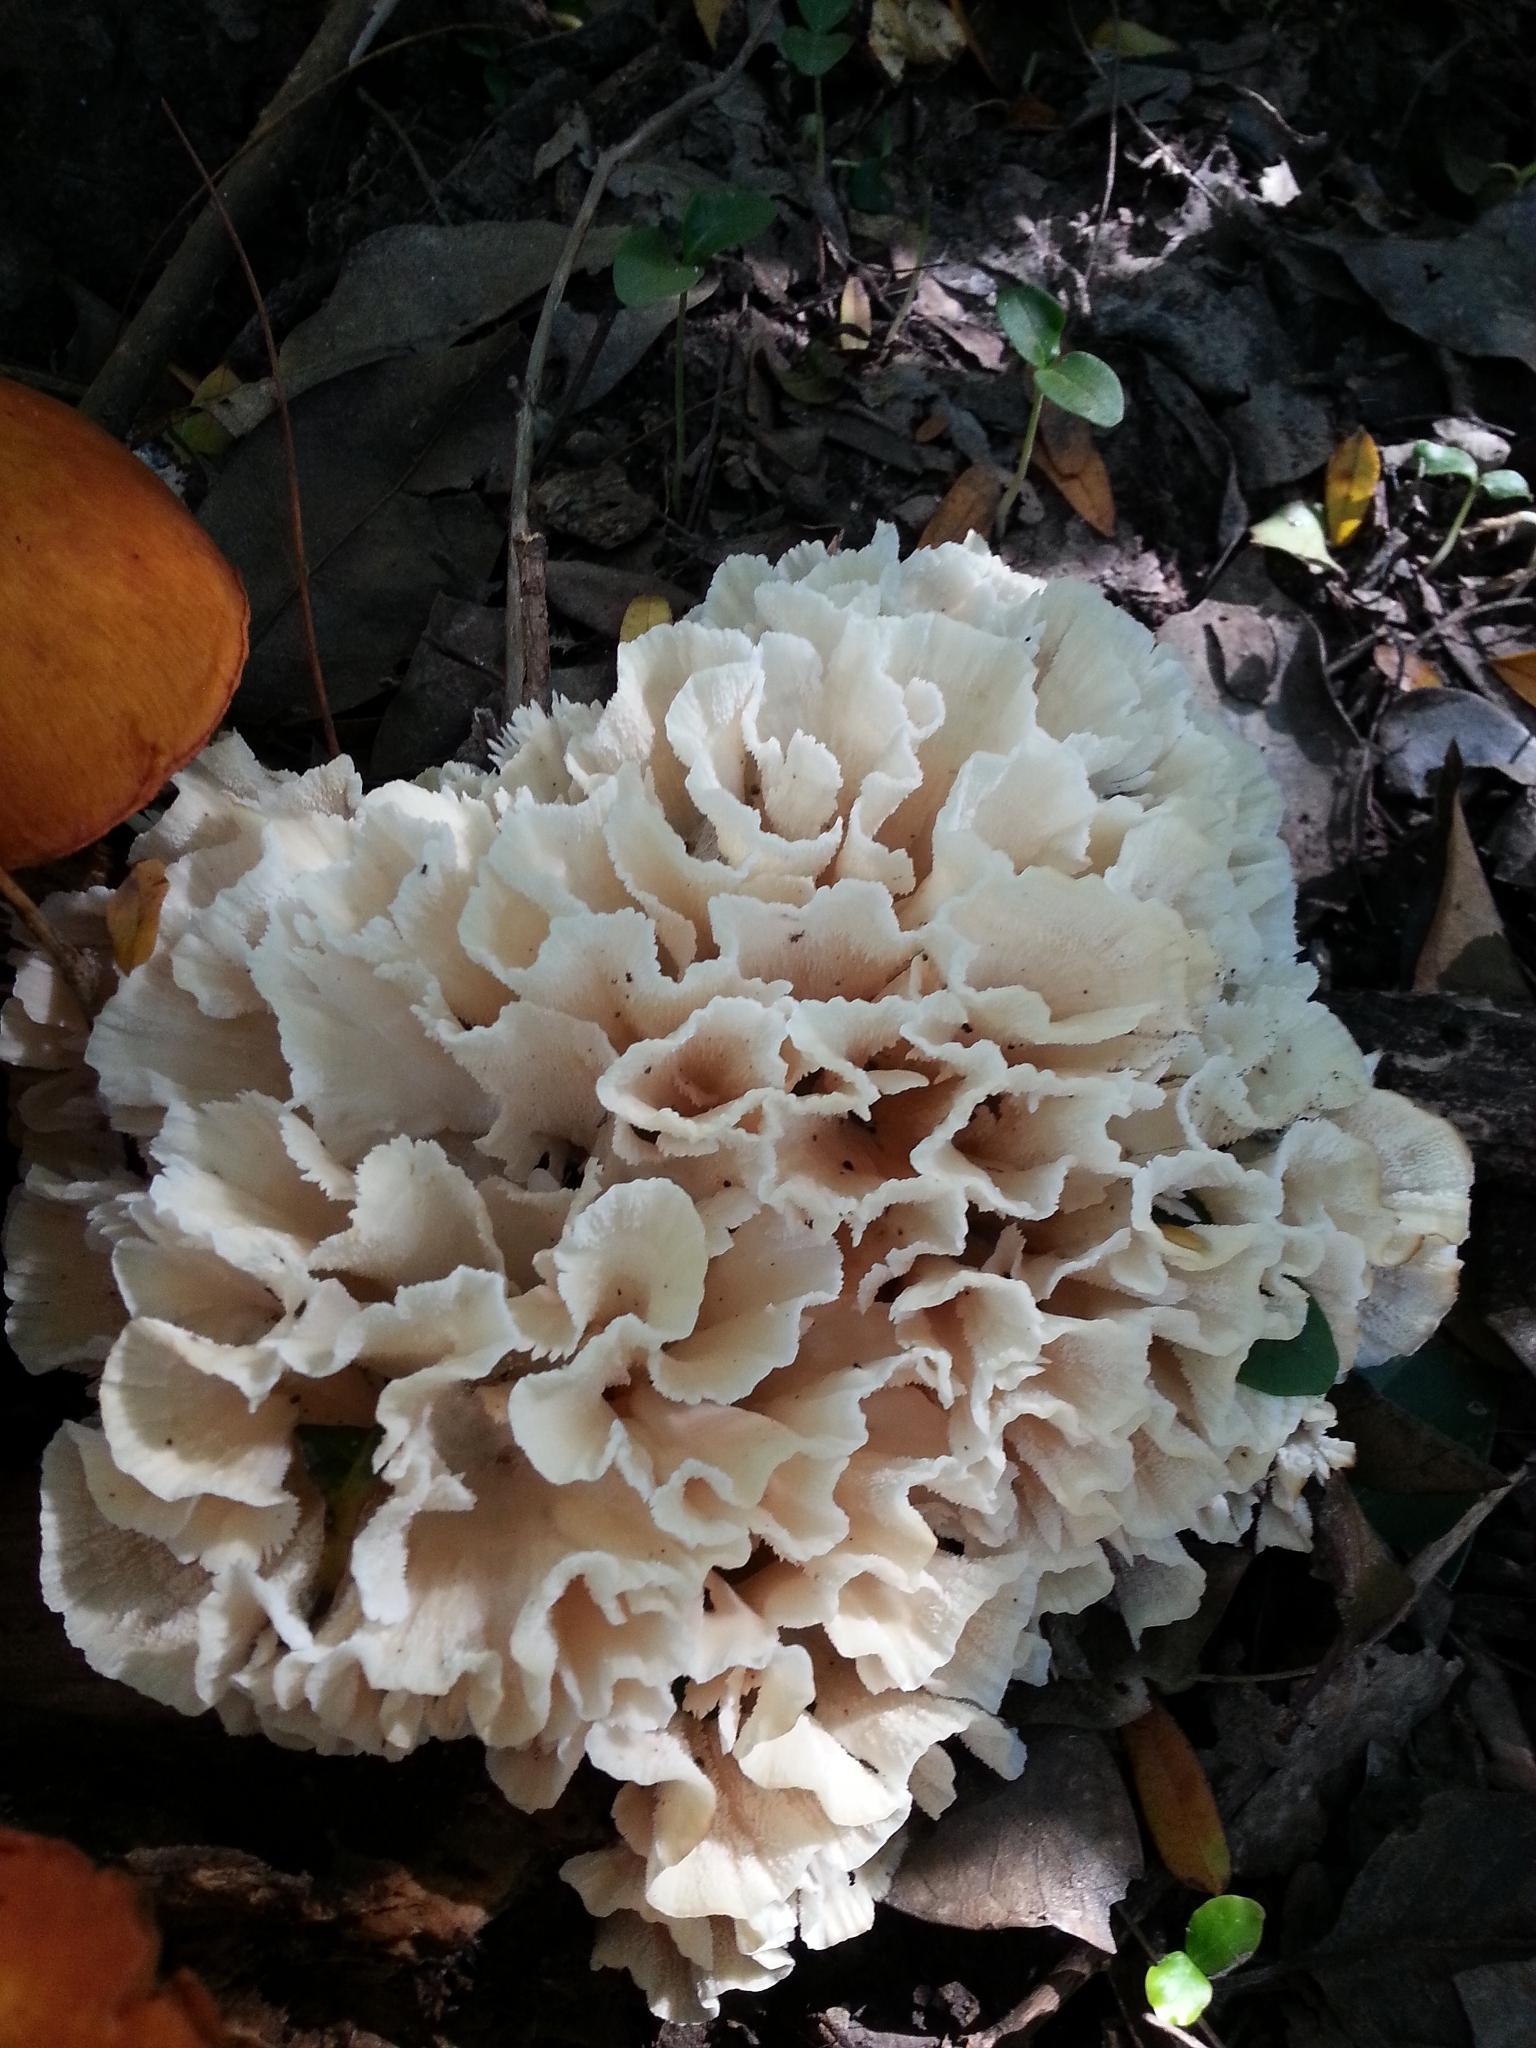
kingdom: Fungi
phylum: Basidiomycota
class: Agaricomycetes
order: Polyporales
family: Irpicaceae
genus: Irpex
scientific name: Irpex rosettiformis
